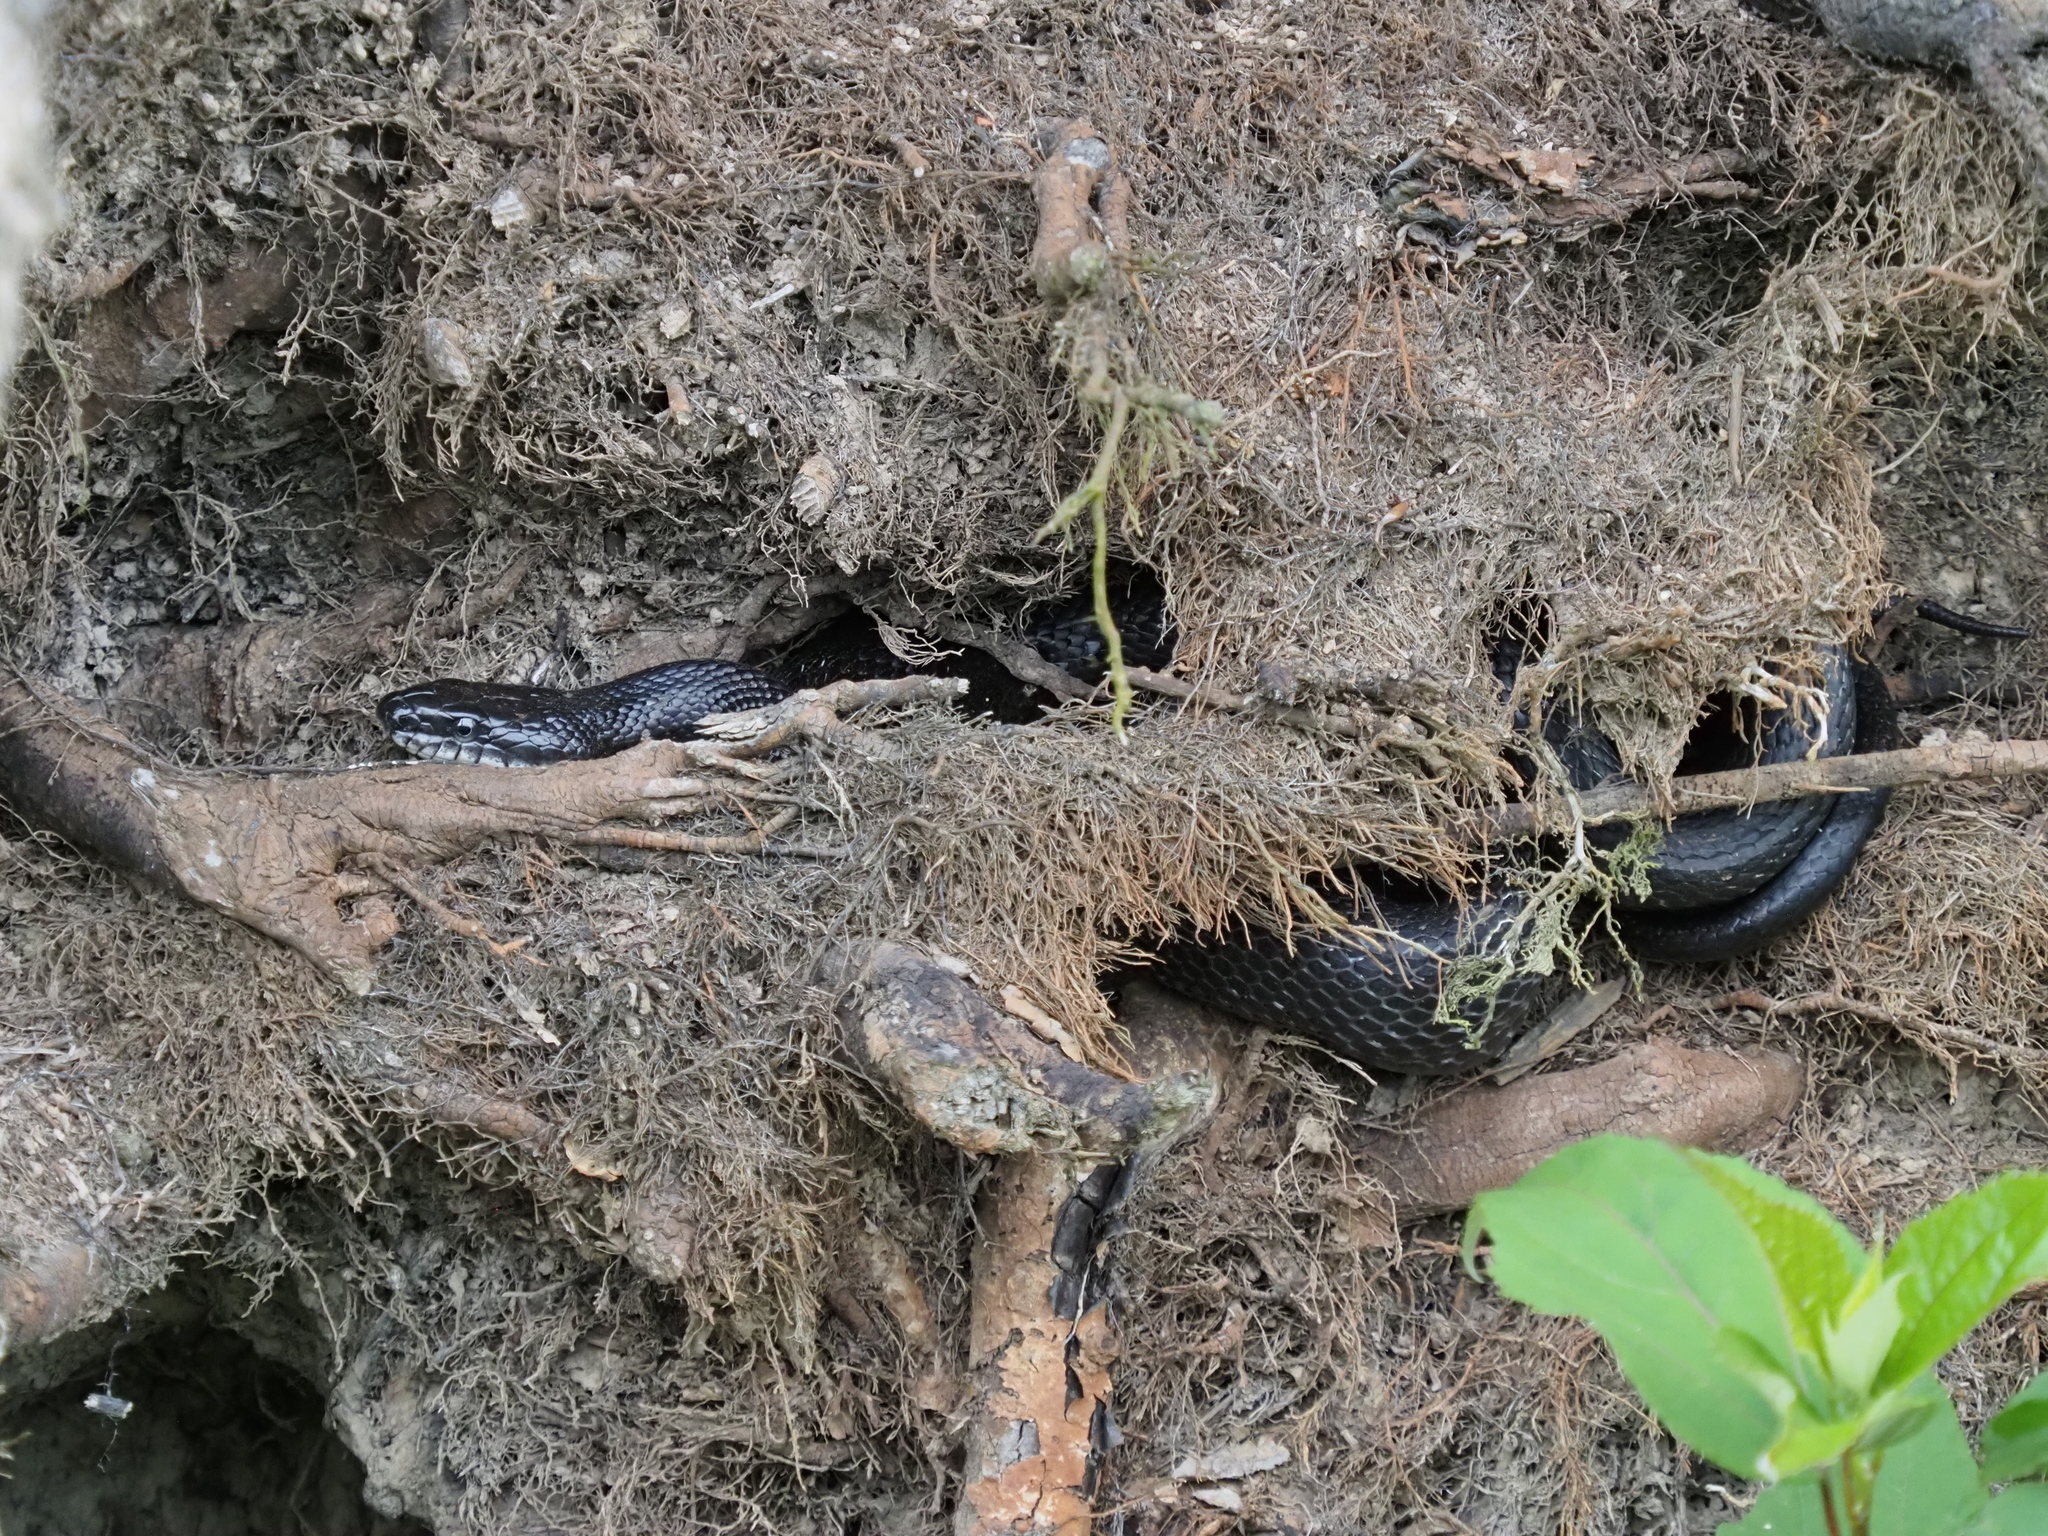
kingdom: Animalia
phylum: Chordata
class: Squamata
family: Colubridae
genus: Pantherophis
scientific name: Pantherophis alleghaniensis
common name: Eastern rat snake
